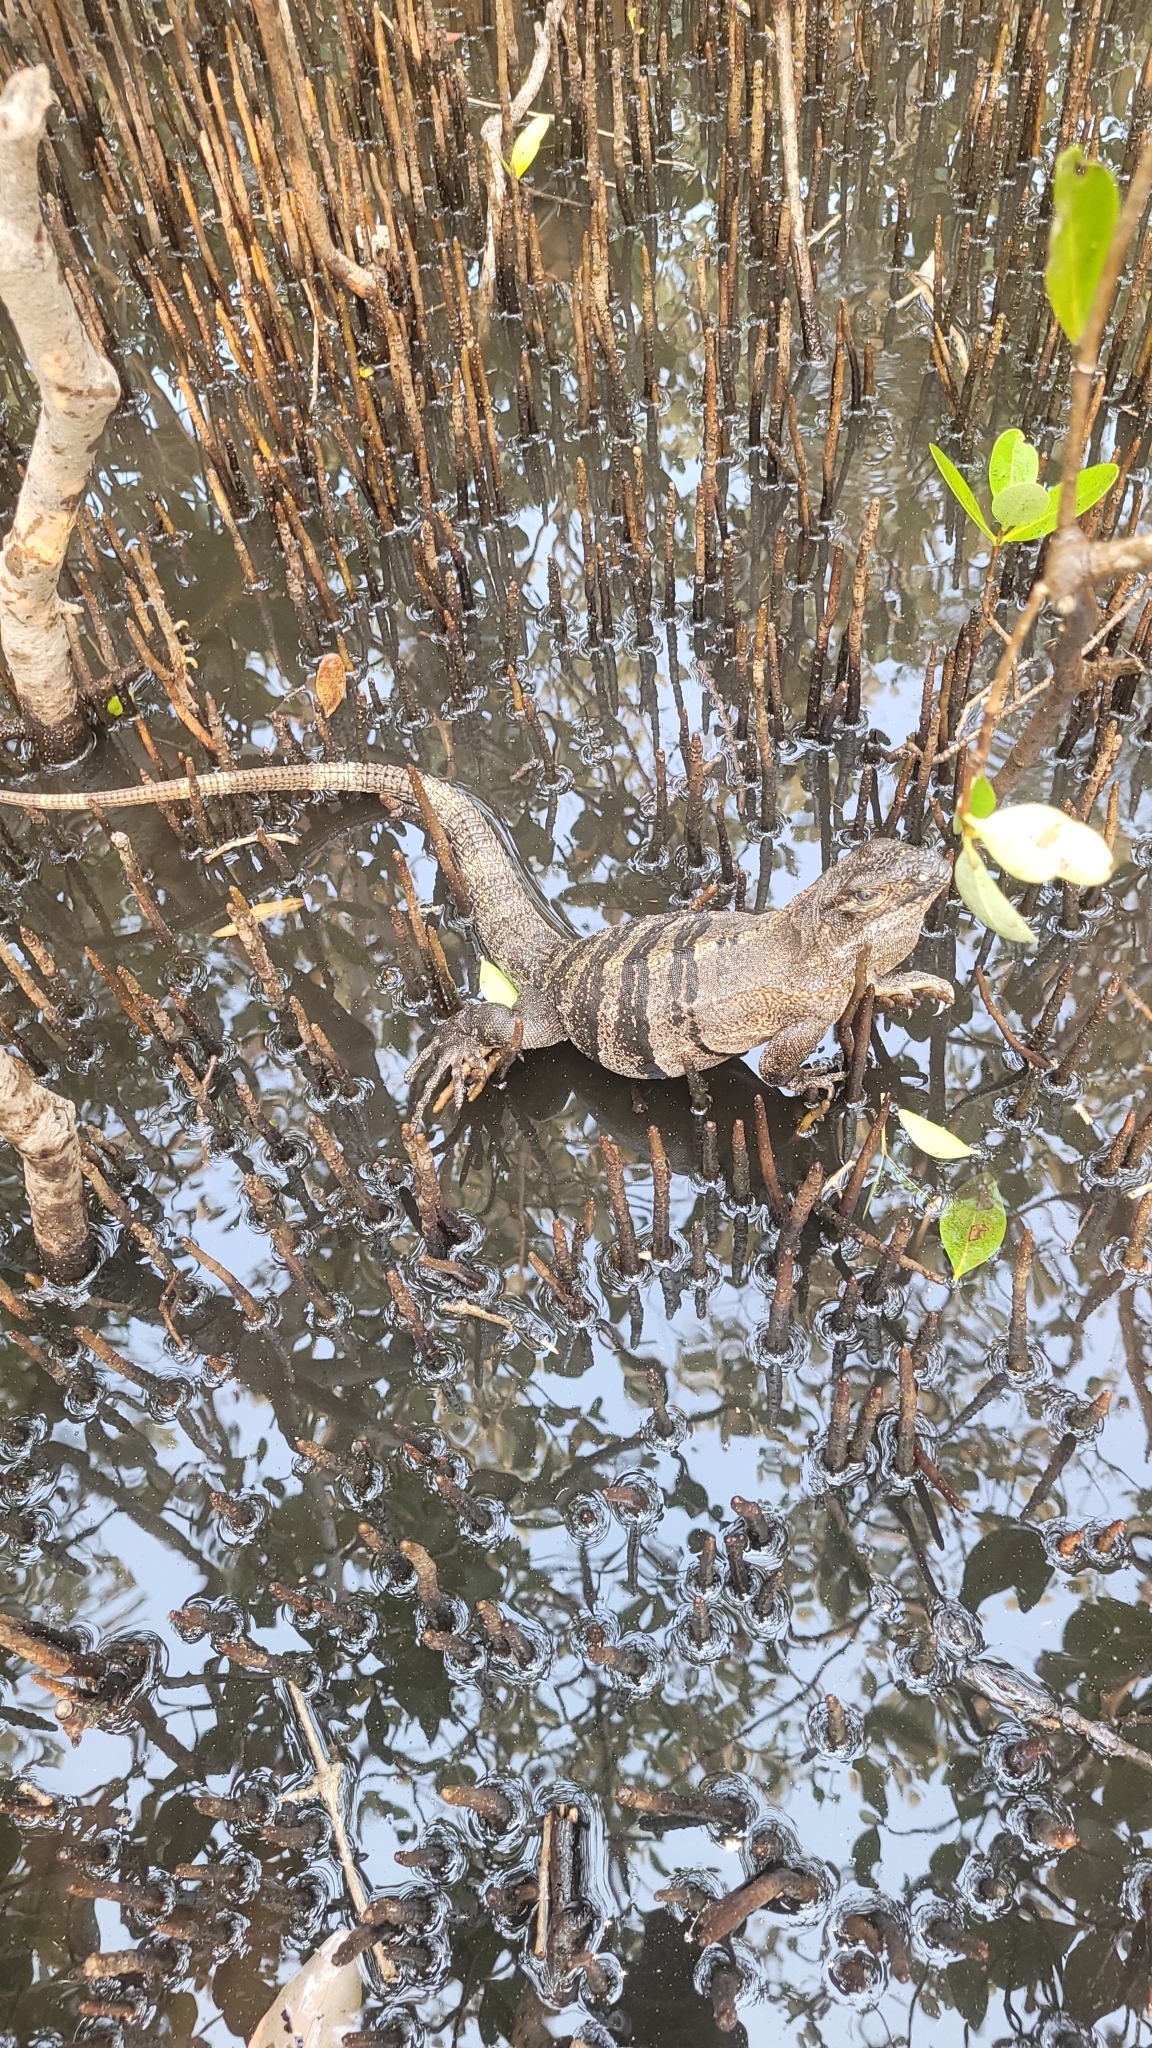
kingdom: Animalia
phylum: Chordata
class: Squamata
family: Iguanidae
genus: Ctenosaura
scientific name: Ctenosaura similis
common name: Black spiny-tailed iguana
